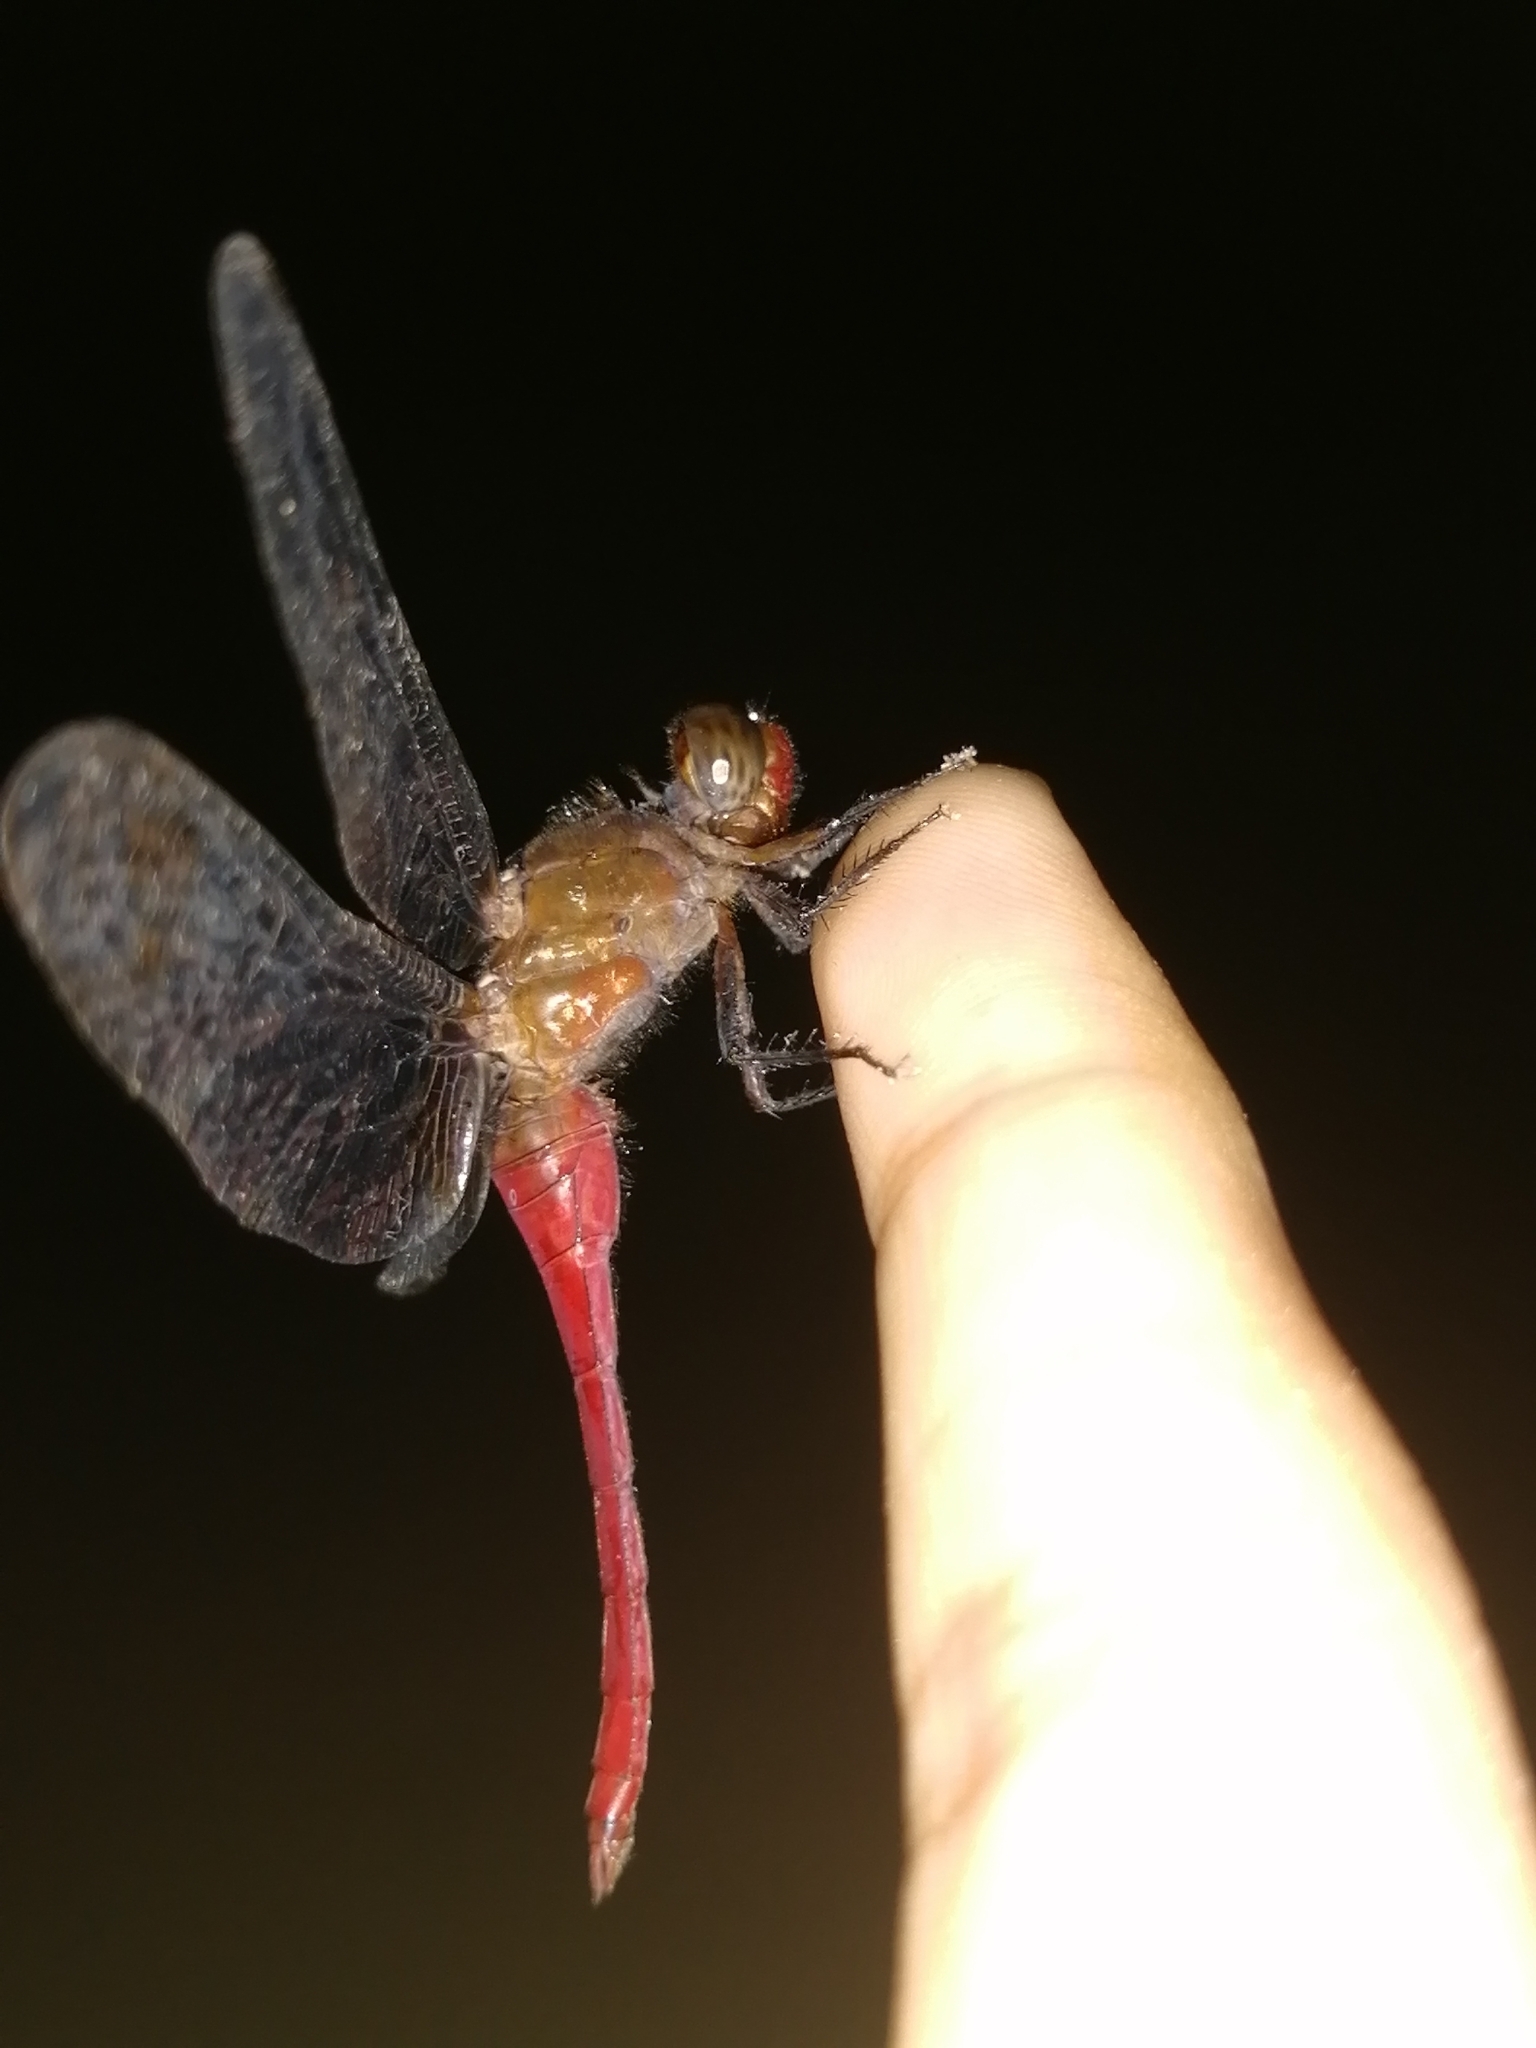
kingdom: Animalia
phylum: Arthropoda
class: Insecta
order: Odonata
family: Libellulidae
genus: Orthetrum
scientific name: Orthetrum chrysis
